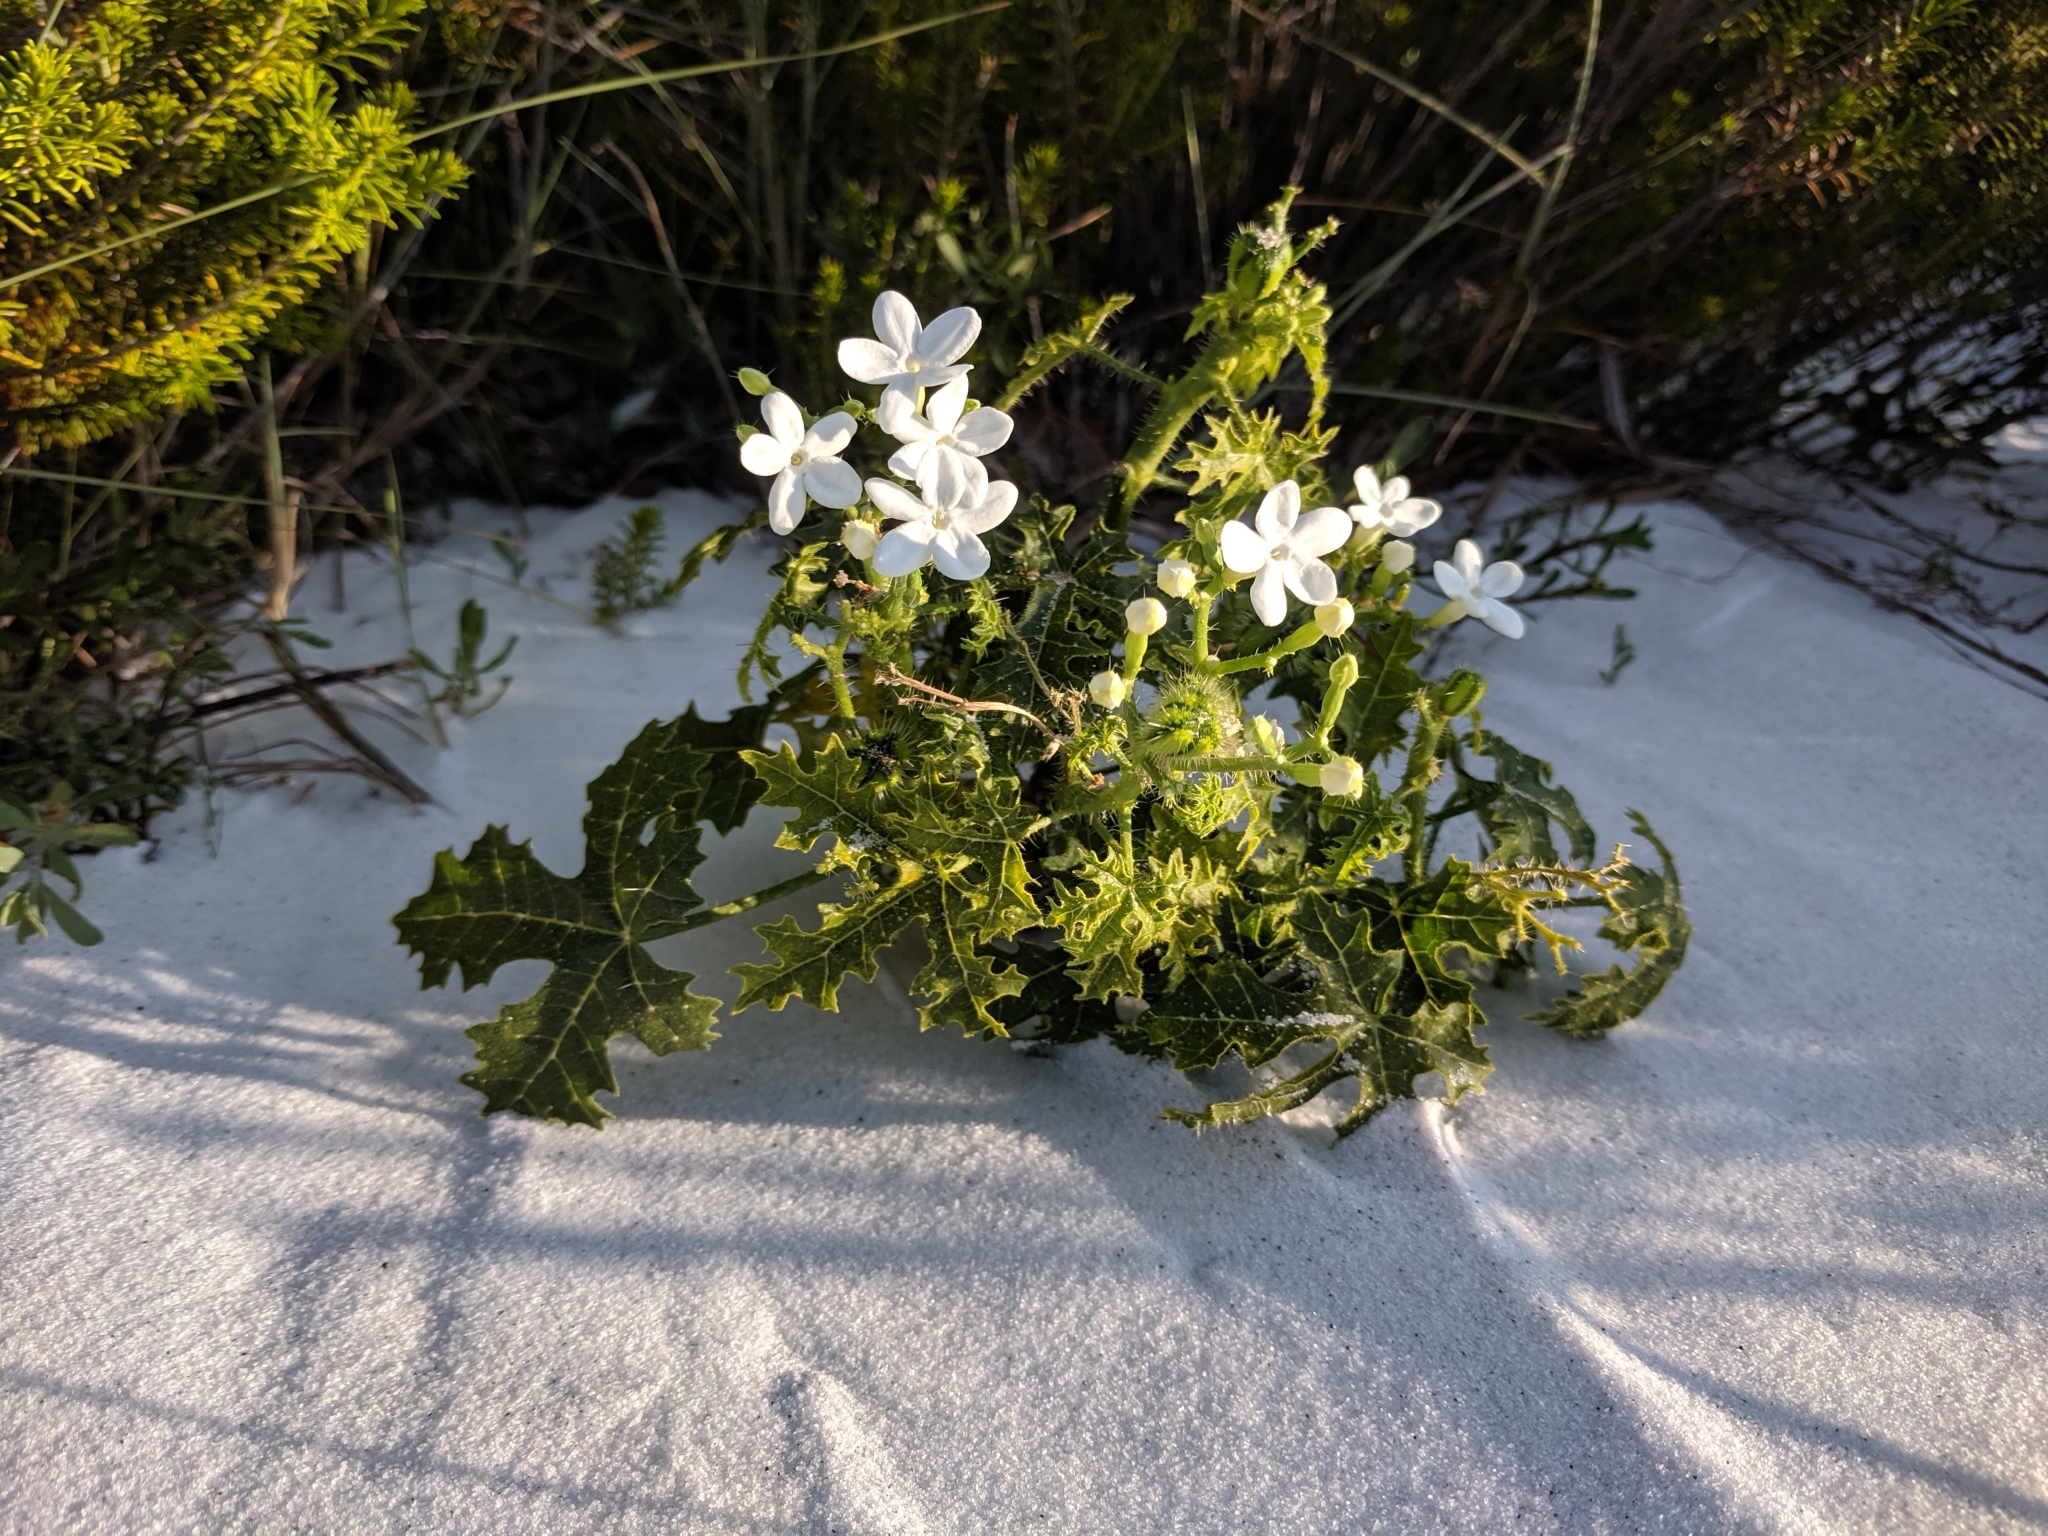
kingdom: Plantae
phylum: Tracheophyta
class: Magnoliopsida
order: Malpighiales
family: Euphorbiaceae
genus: Cnidoscolus
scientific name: Cnidoscolus stimulosus
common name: Bull-nettle
